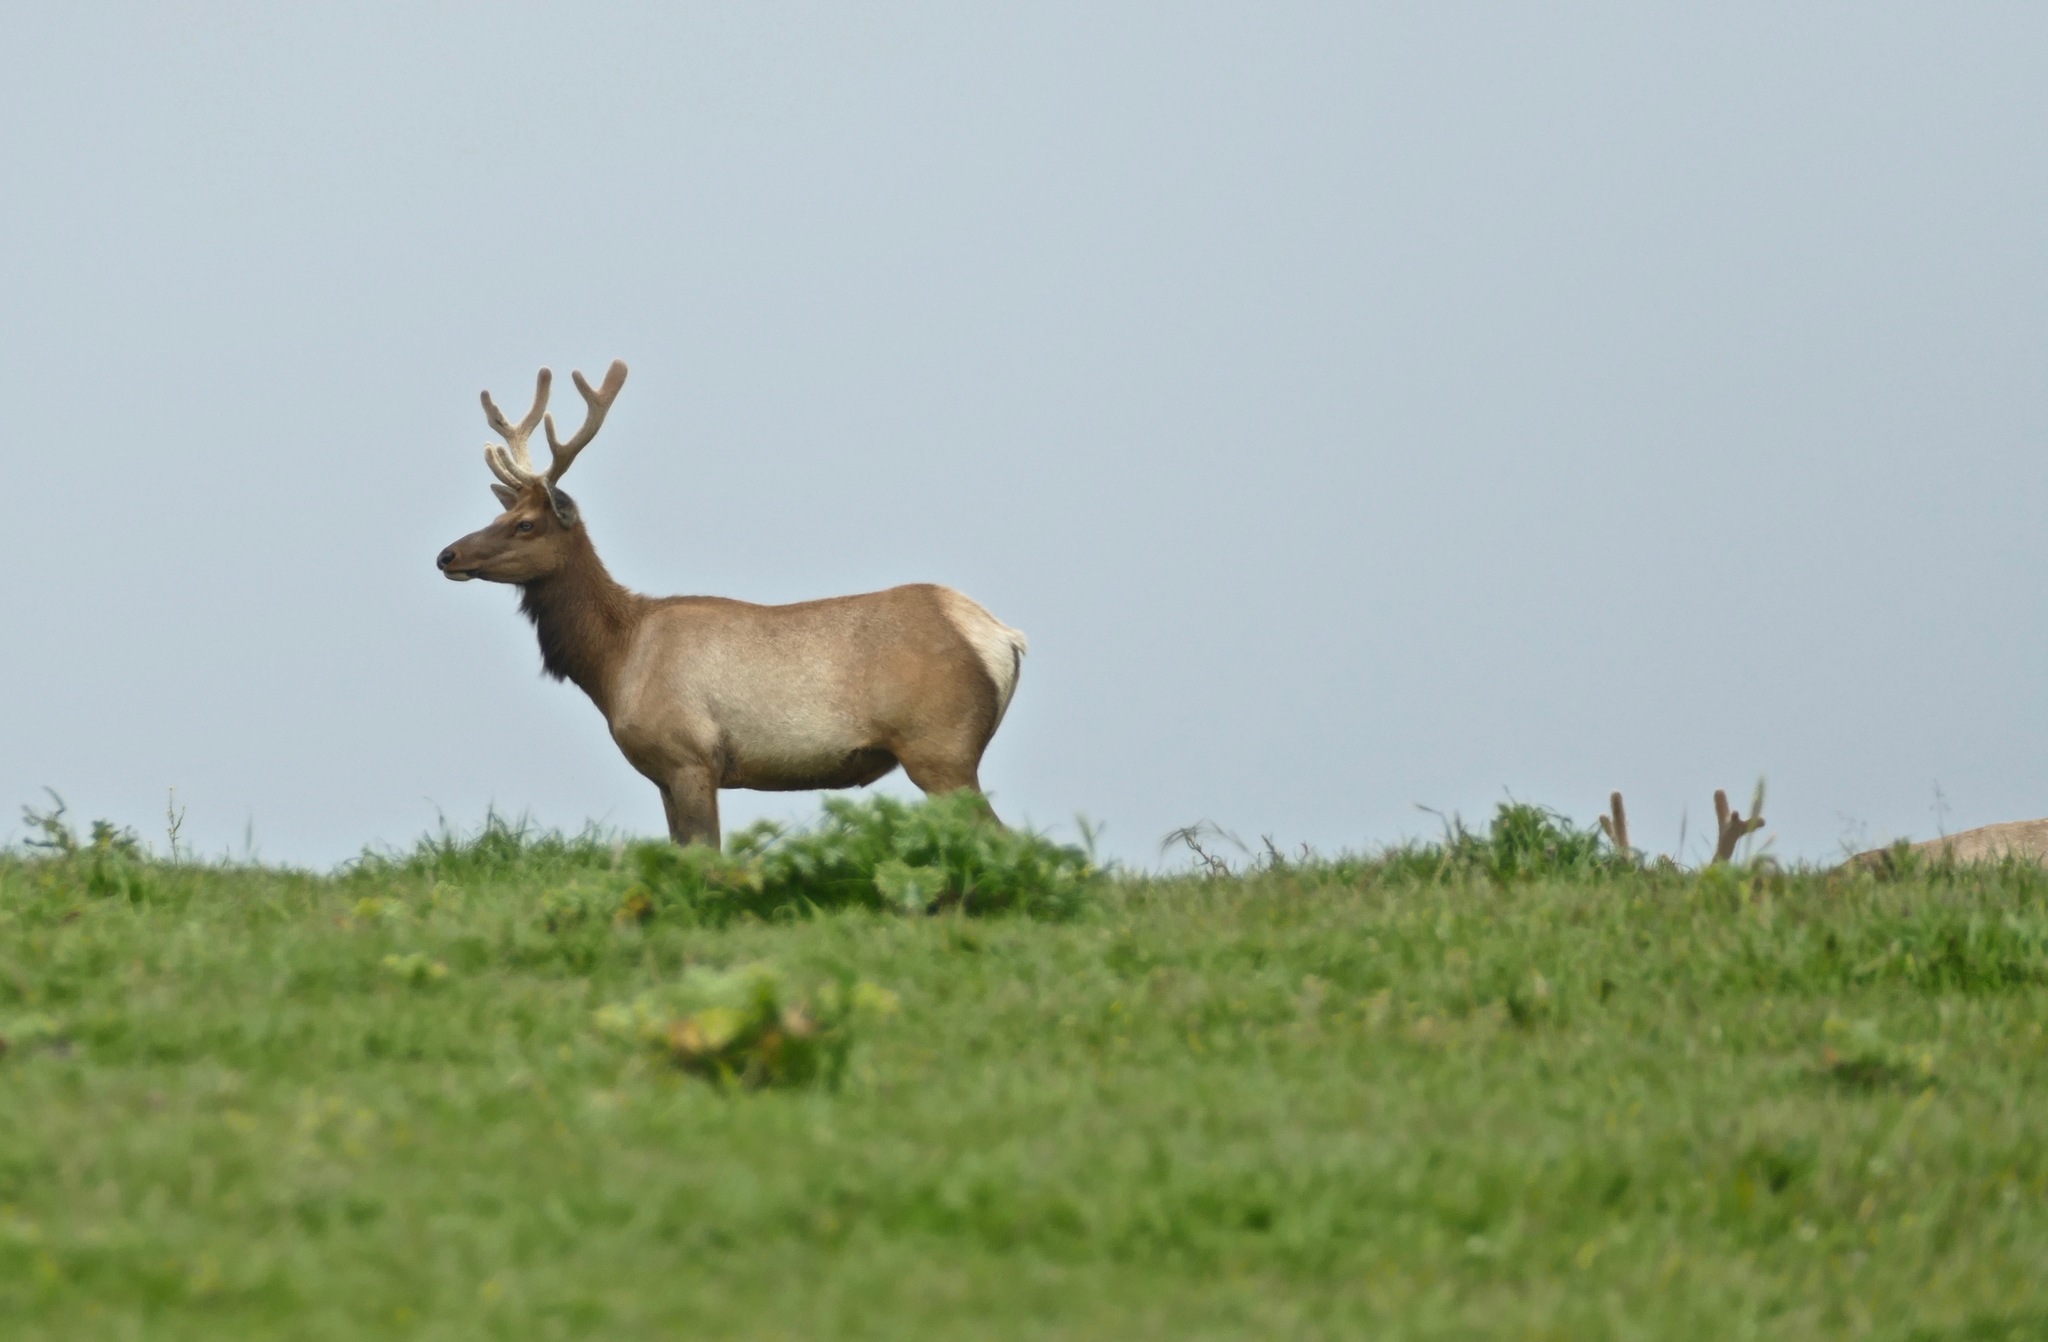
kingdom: Animalia
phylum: Chordata
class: Mammalia
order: Artiodactyla
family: Cervidae
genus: Cervus
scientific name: Cervus elaphus
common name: Red deer
